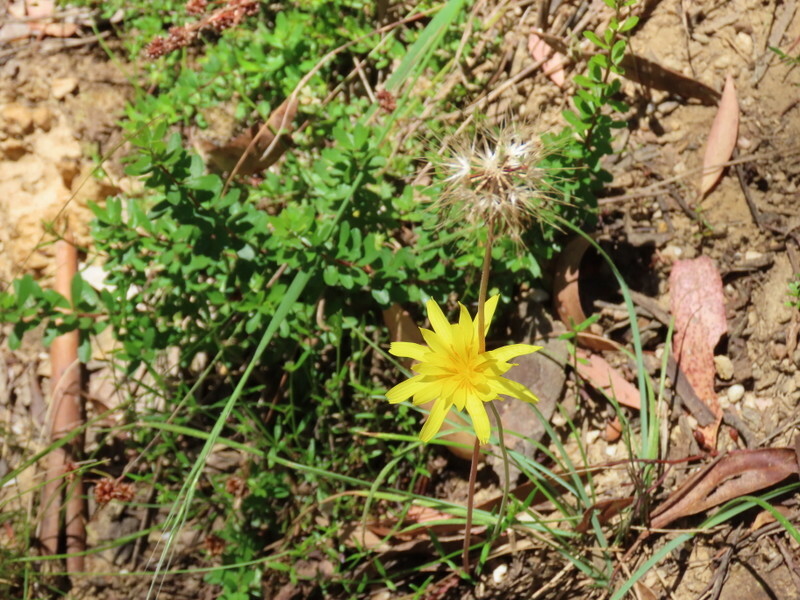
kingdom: Plantae
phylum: Tracheophyta
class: Magnoliopsida
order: Asterales
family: Asteraceae
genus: Microseris
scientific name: Microseris lanceolata
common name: Yam daisy
